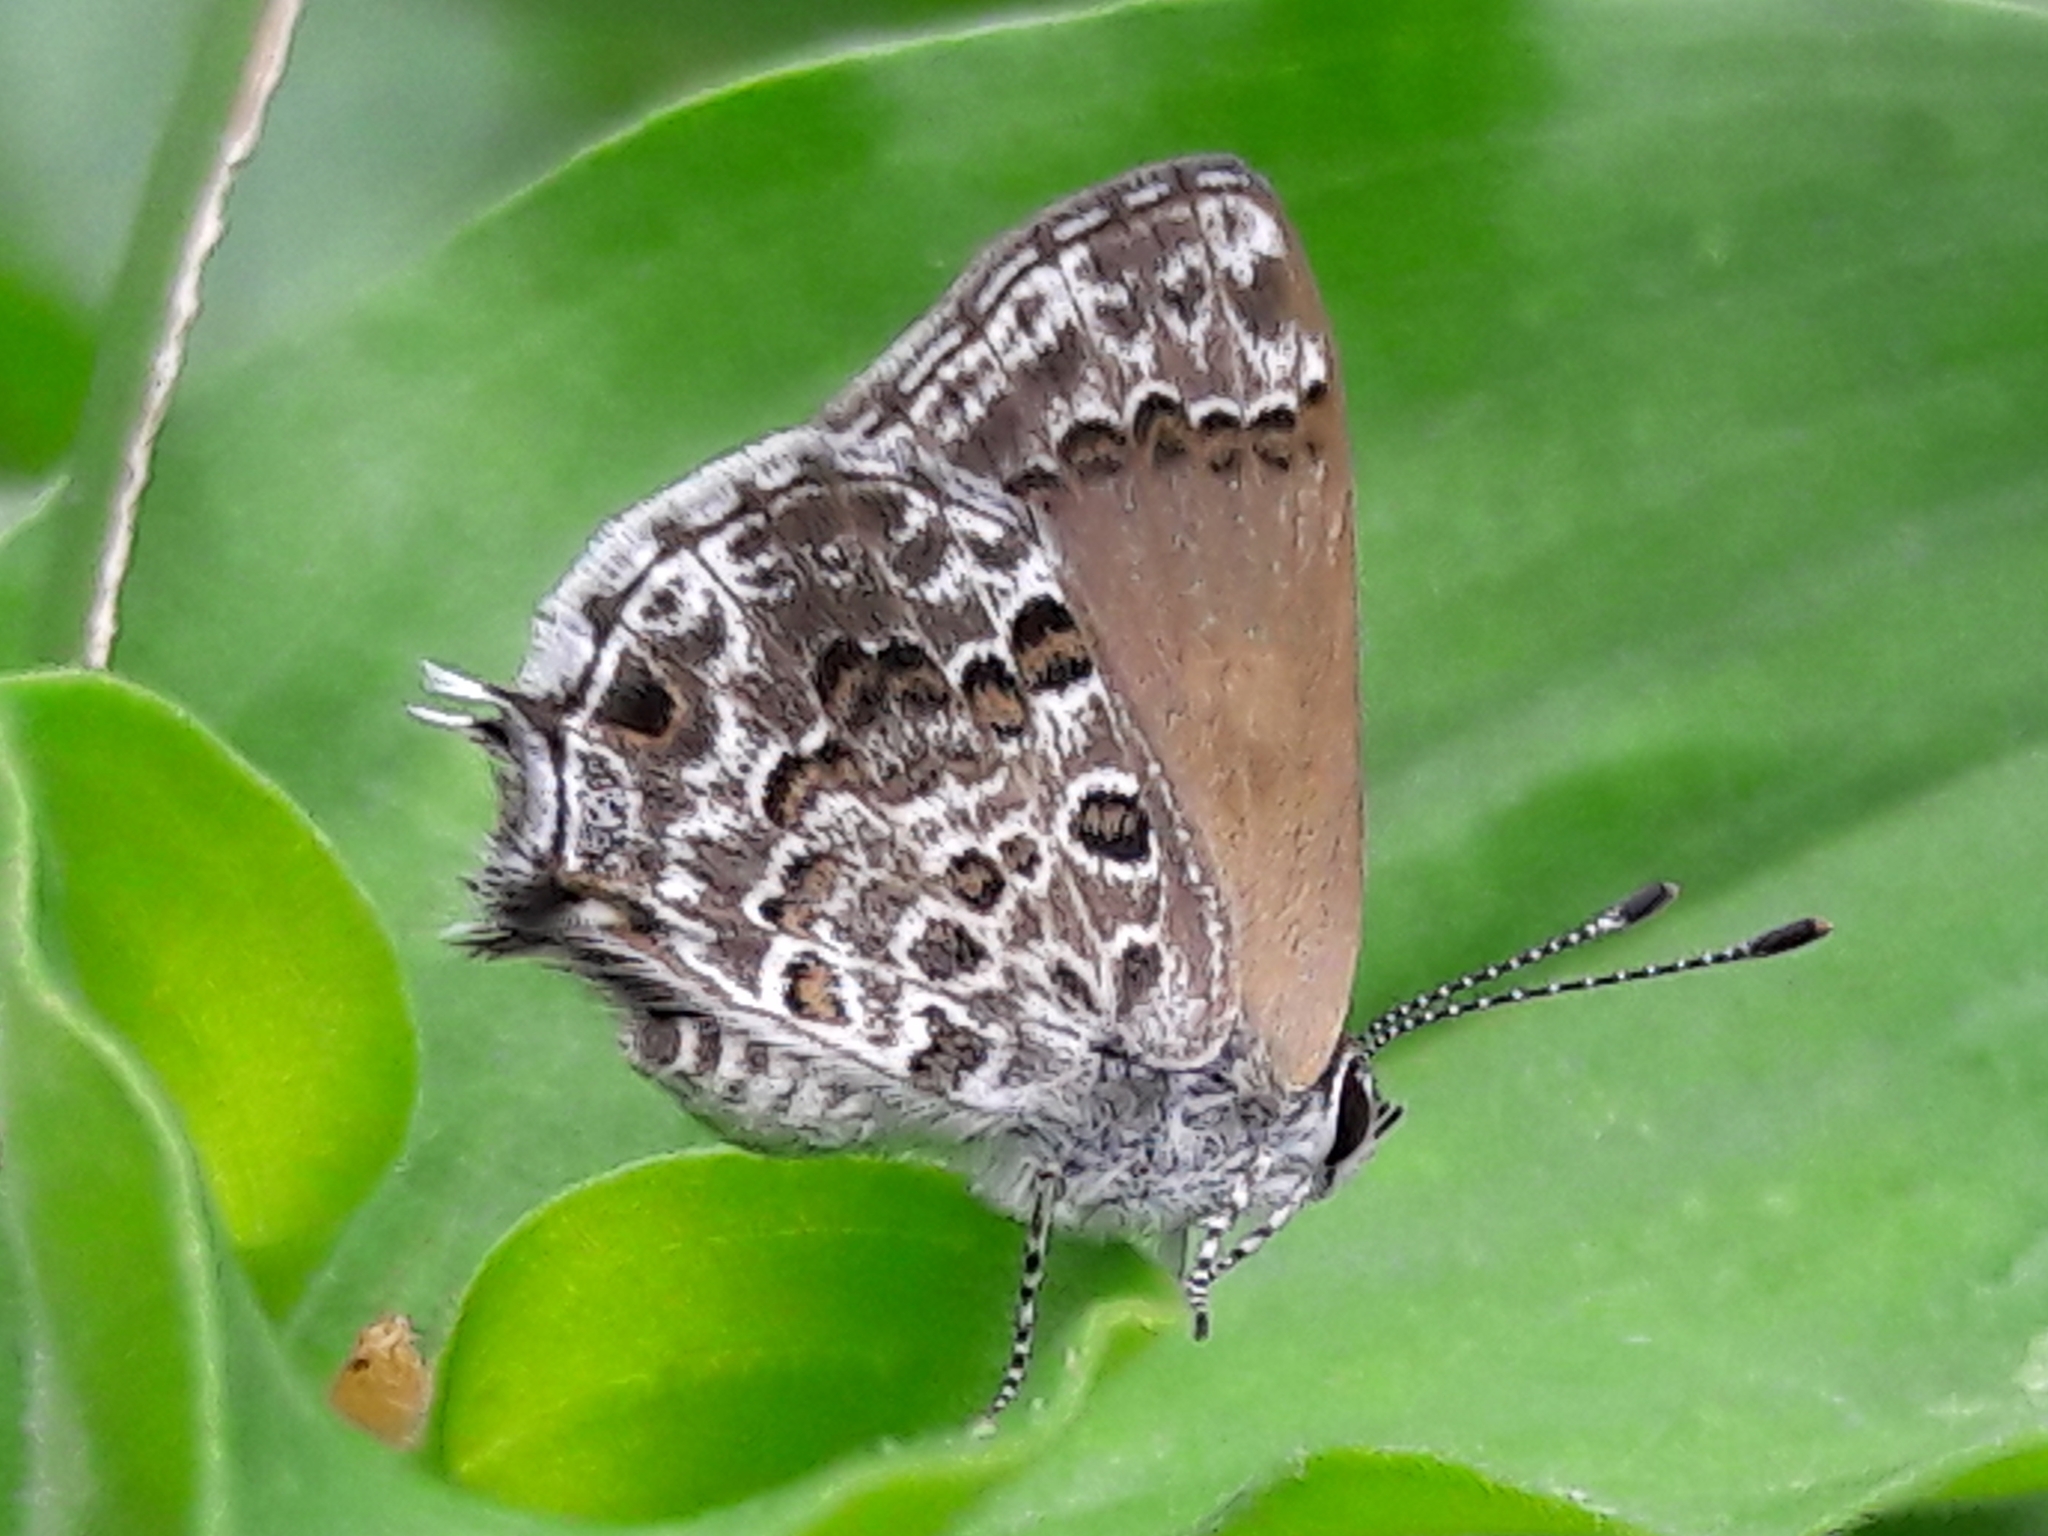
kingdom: Animalia
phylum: Arthropoda
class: Insecta
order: Lepidoptera
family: Lycaenidae
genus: Strymon
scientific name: Strymon astiocha
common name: Gray-spotted scrub-hairstreak
